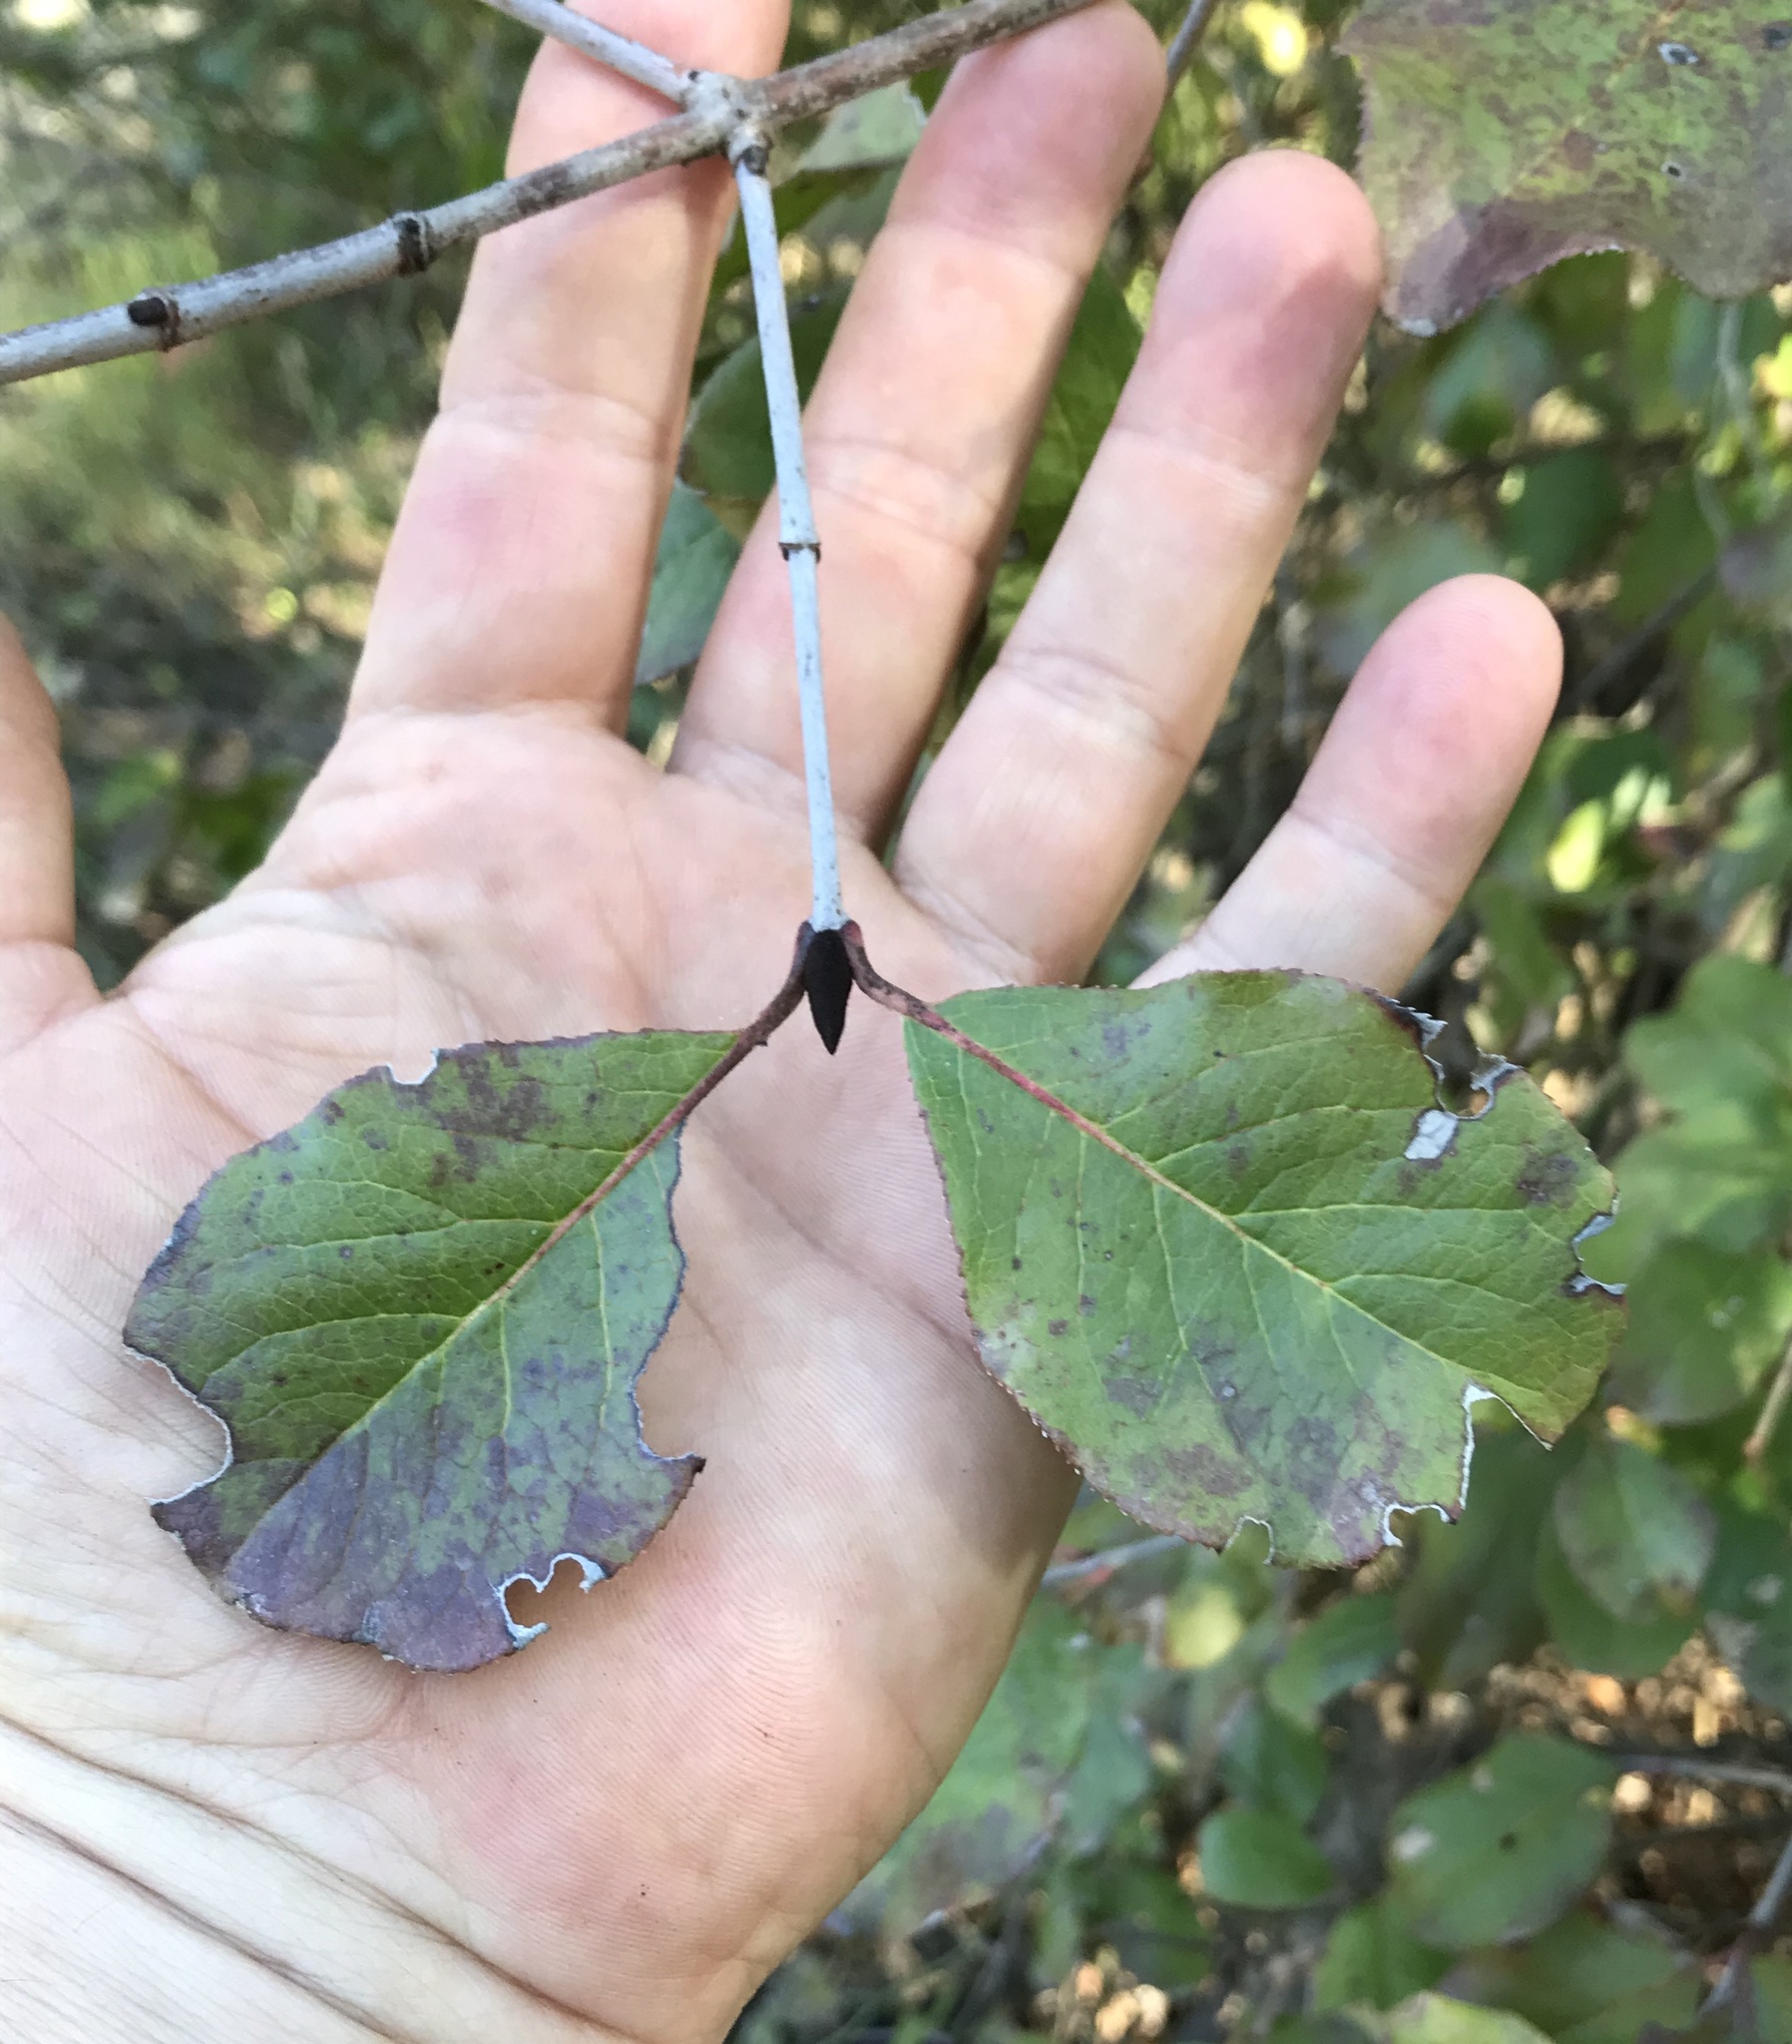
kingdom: Plantae
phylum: Tracheophyta
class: Magnoliopsida
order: Dipsacales
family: Viburnaceae
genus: Viburnum
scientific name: Viburnum rufidulum
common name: Blue haw
